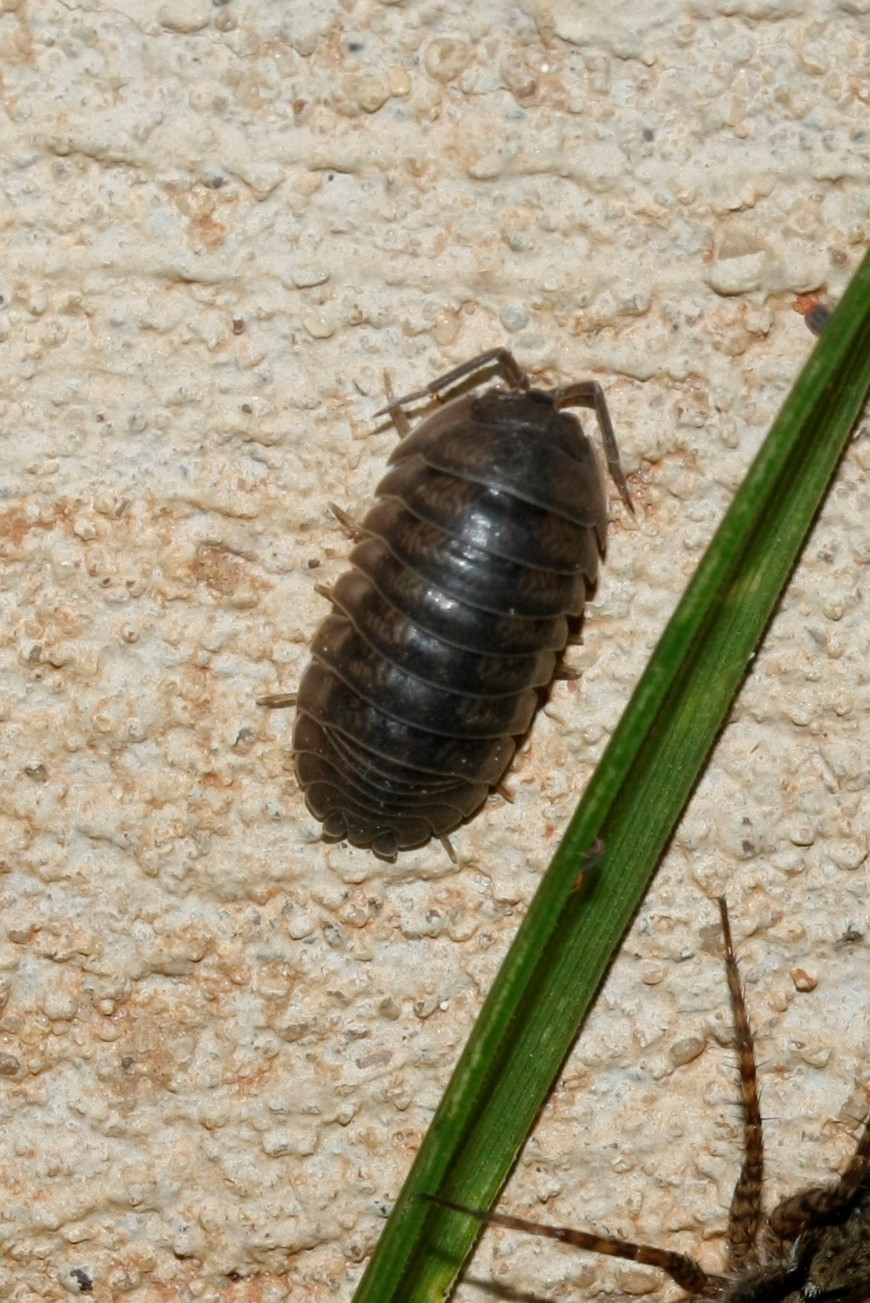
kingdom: Animalia
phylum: Arthropoda
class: Malacostraca
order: Isopoda
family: Armadillidiidae
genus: Armadillidium
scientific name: Armadillidium nasatum
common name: Isopod
